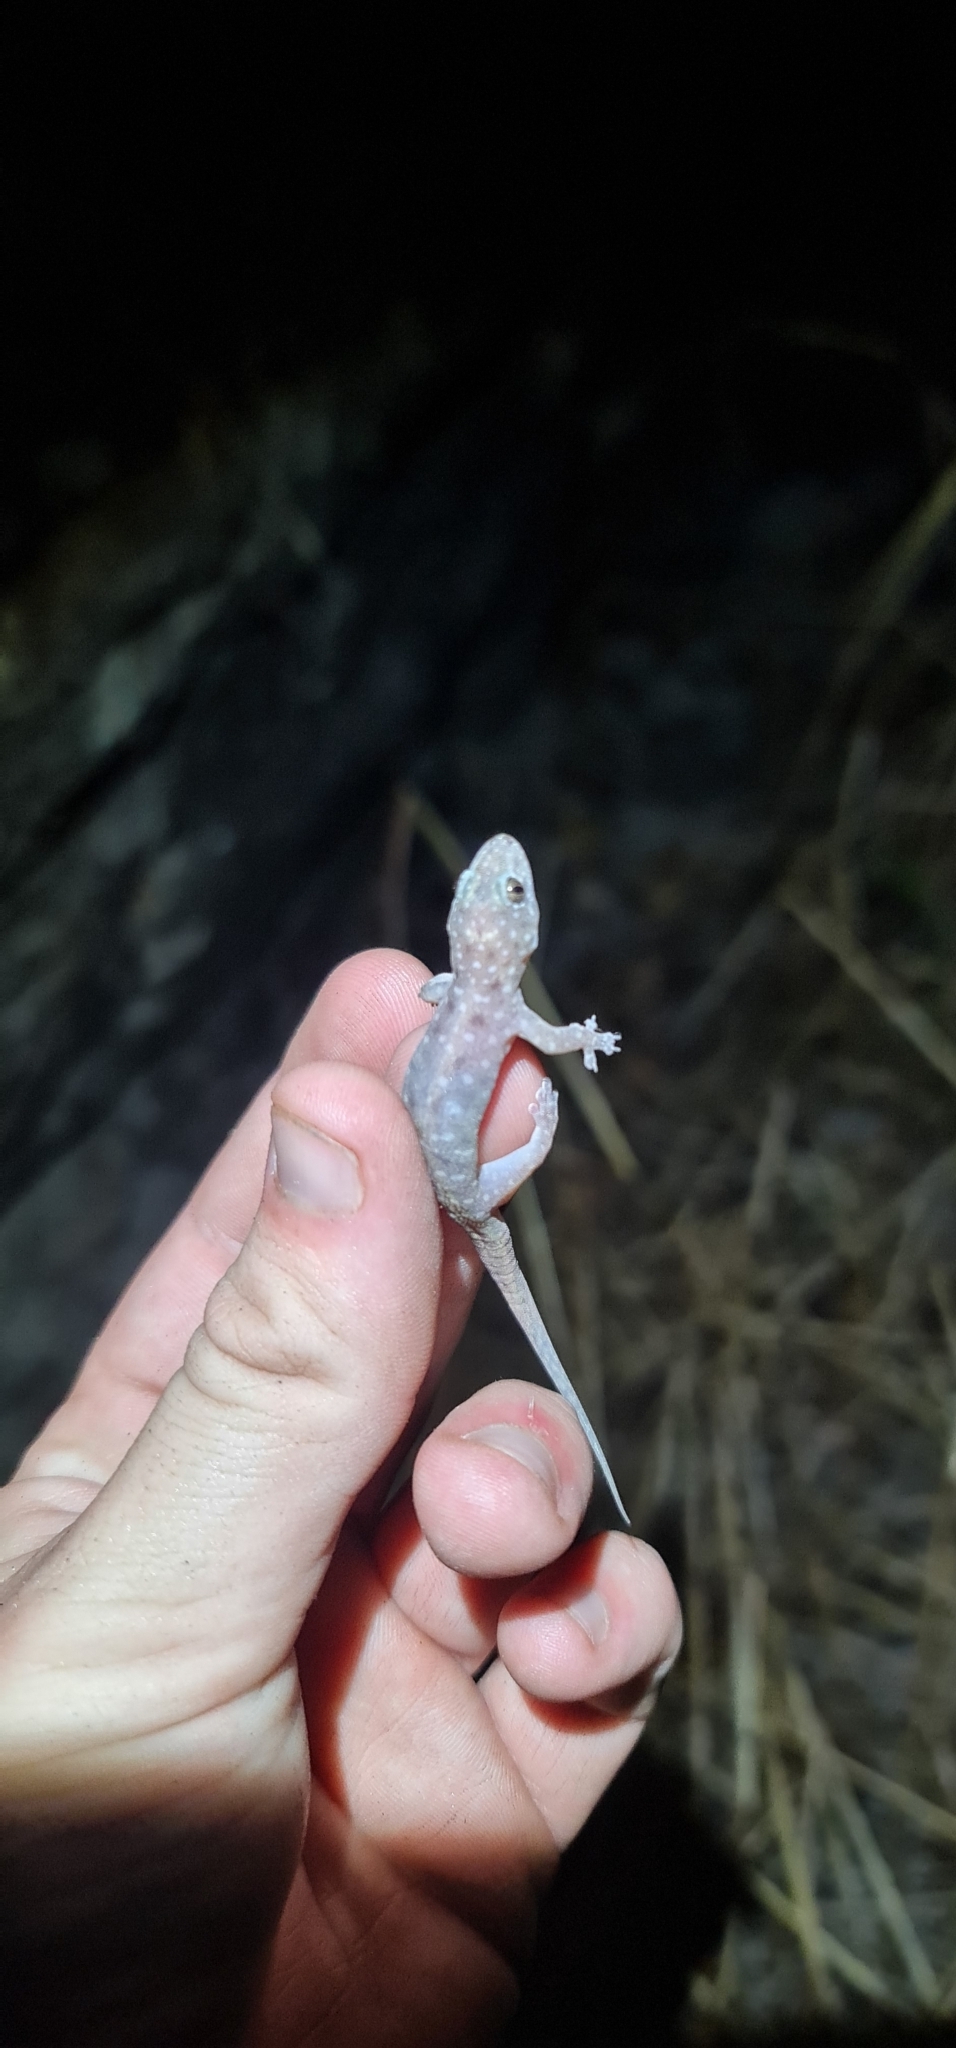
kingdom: Animalia
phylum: Chordata
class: Squamata
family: Gekkonidae
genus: Gehyra
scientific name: Gehyra nana
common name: Northern spotted rock dtella
